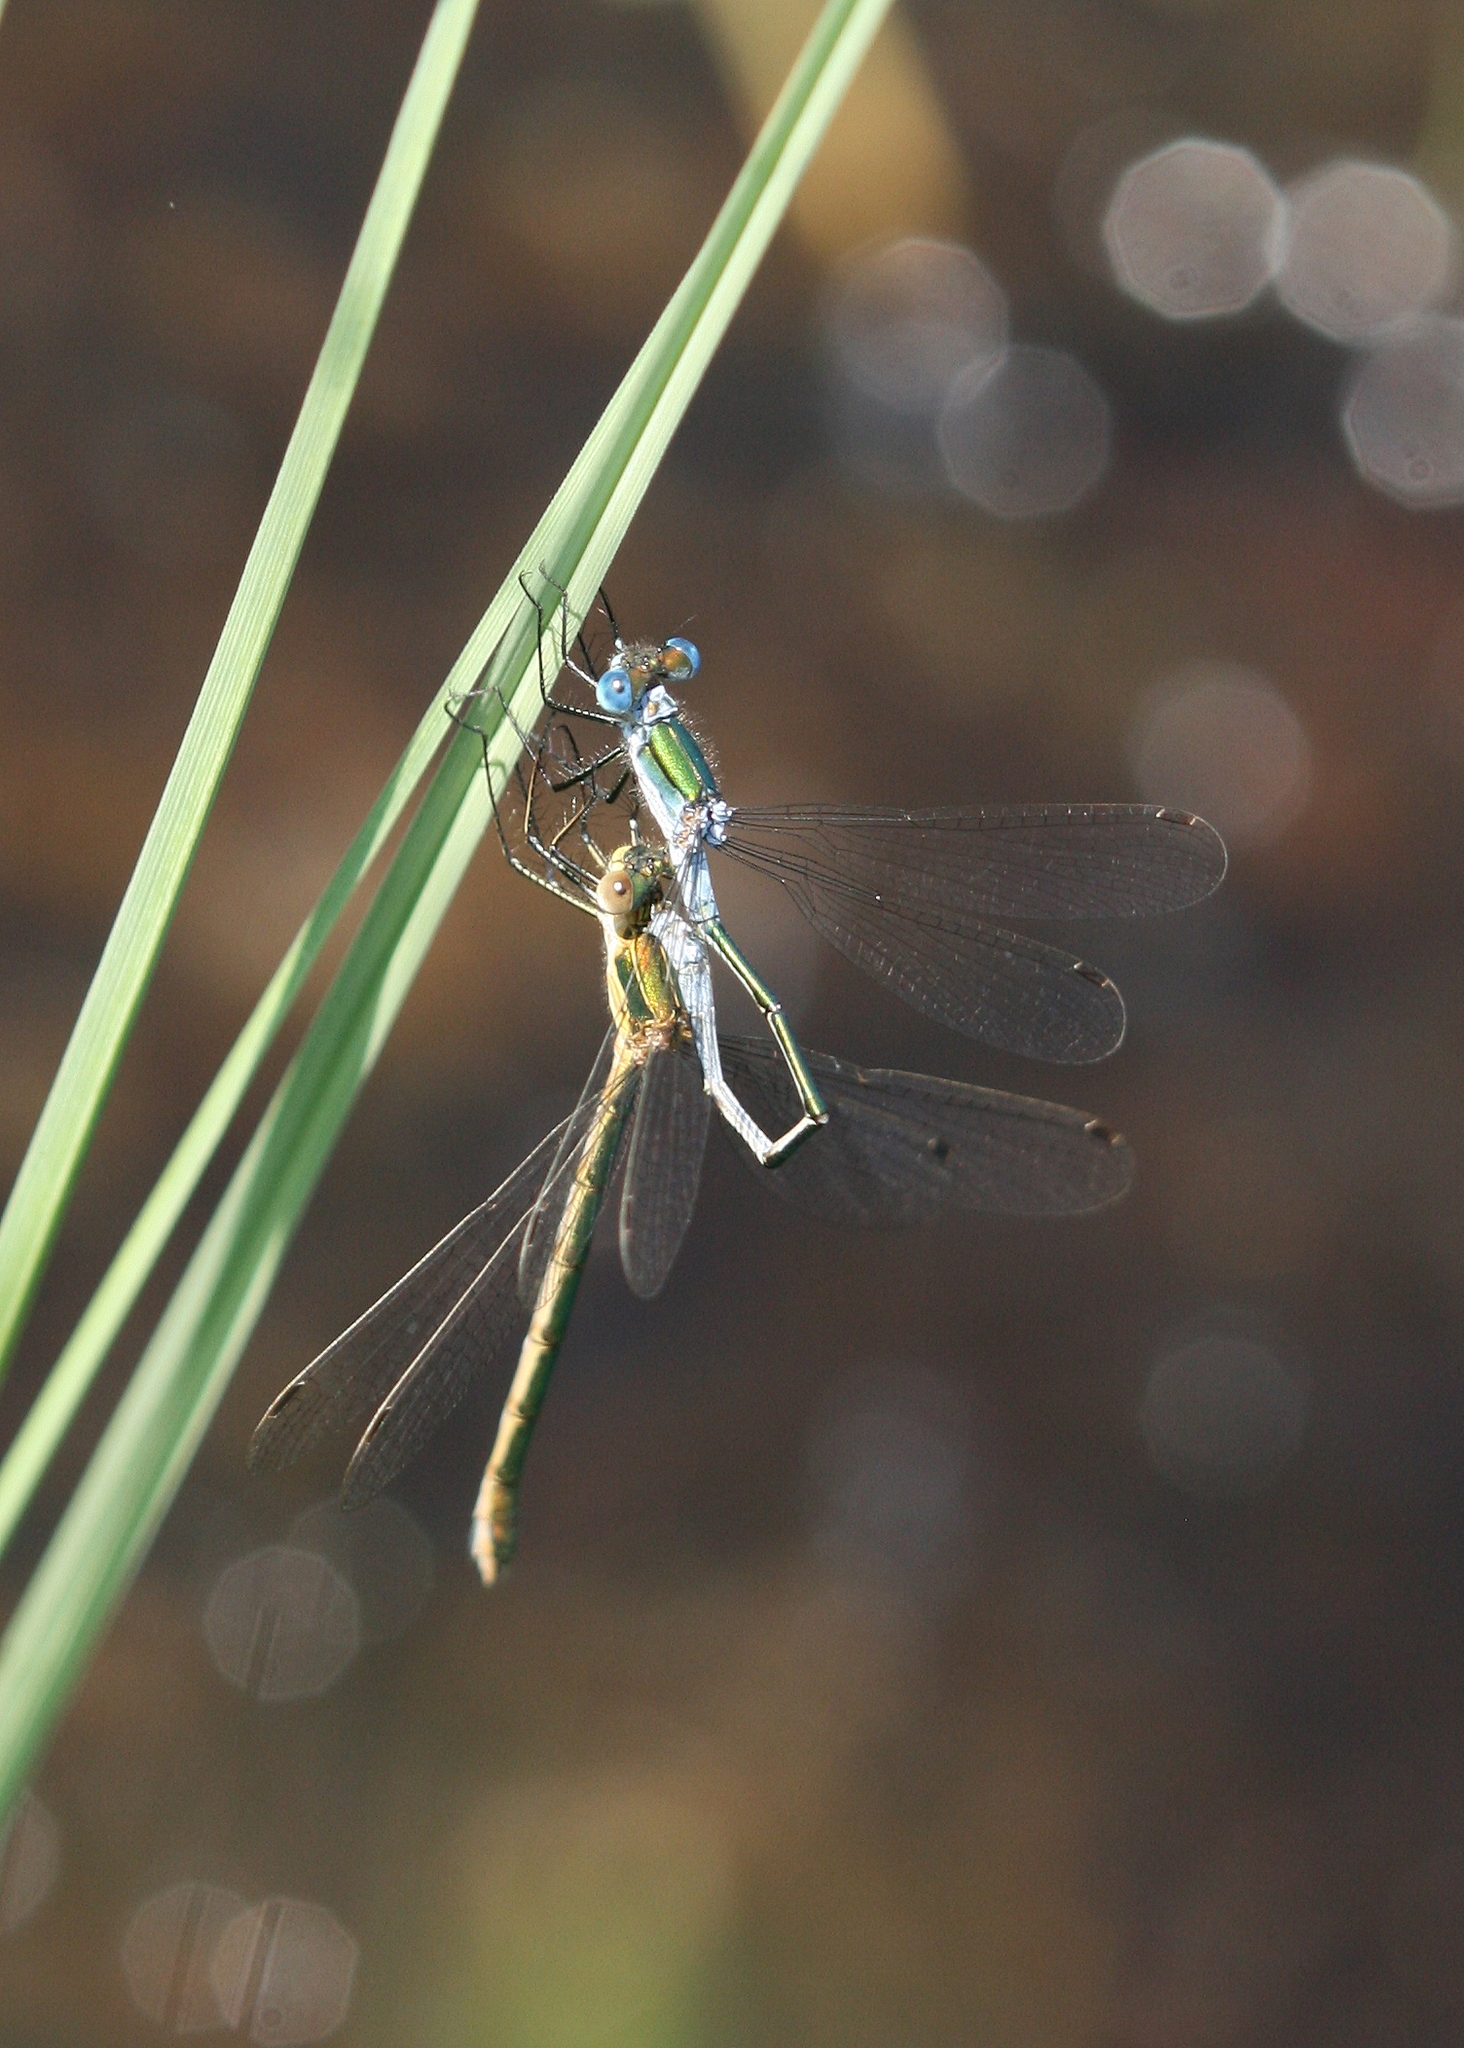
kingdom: Animalia
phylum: Arthropoda
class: Insecta
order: Odonata
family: Lestidae
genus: Lestes
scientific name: Lestes sponsa
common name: Common spreadwing
